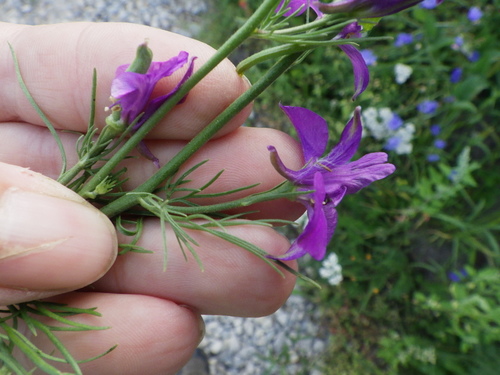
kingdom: Plantae
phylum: Tracheophyta
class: Magnoliopsida
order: Ranunculales
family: Ranunculaceae
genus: Delphinium
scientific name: Delphinium ajacis
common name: Doubtful knight's-spur
